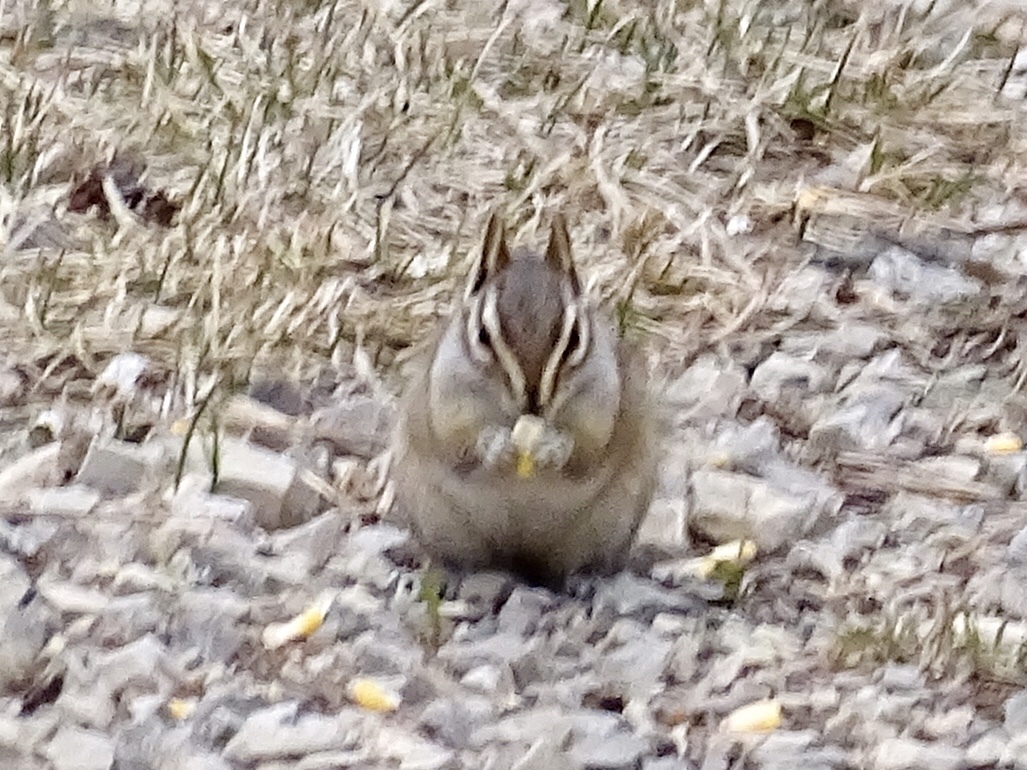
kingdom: Animalia
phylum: Chordata
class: Mammalia
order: Rodentia
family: Sciuridae
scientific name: Sciuridae
